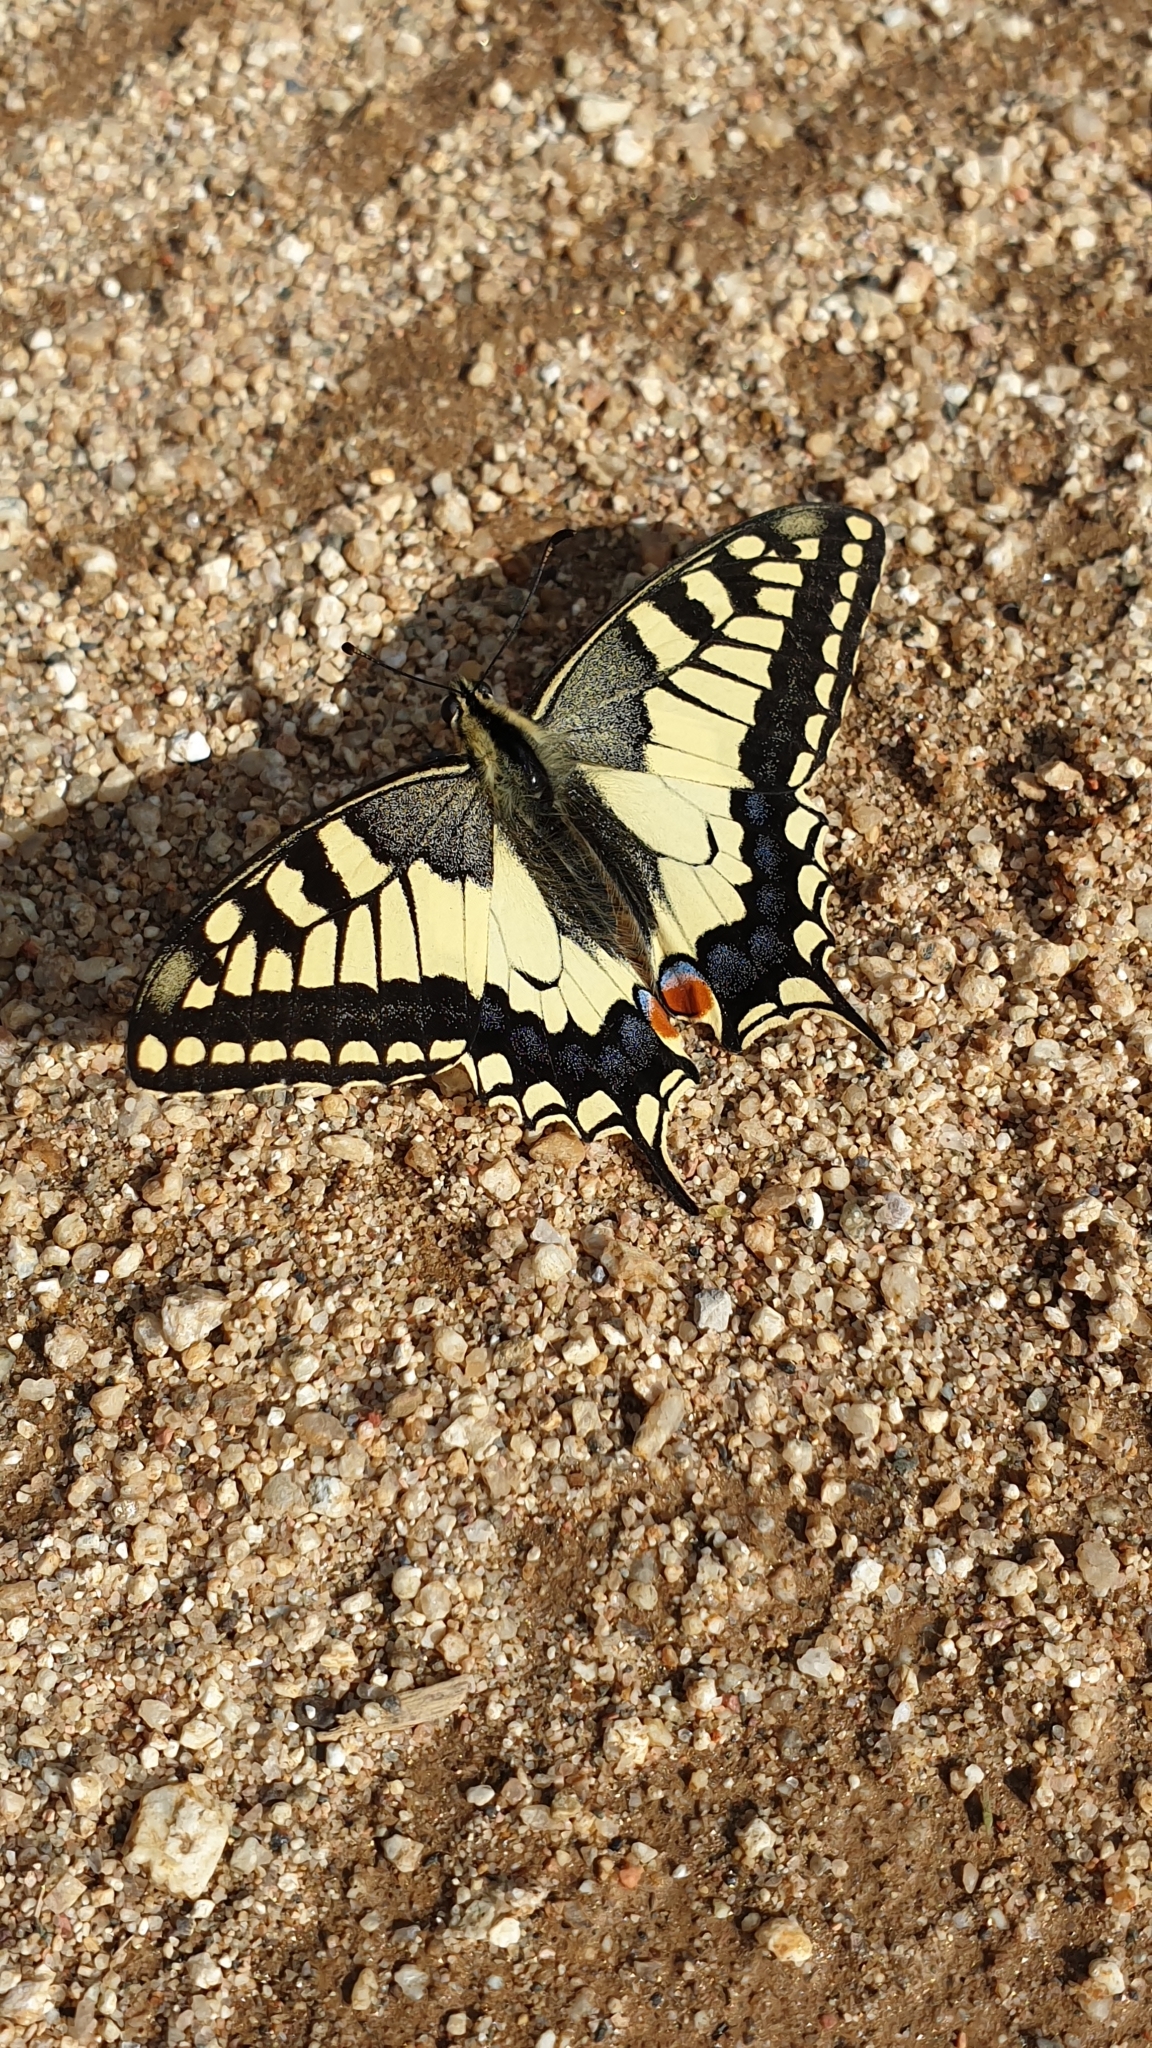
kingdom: Animalia
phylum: Arthropoda
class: Insecta
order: Lepidoptera
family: Papilionidae
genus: Papilio
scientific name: Papilio machaon
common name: Swallowtail
